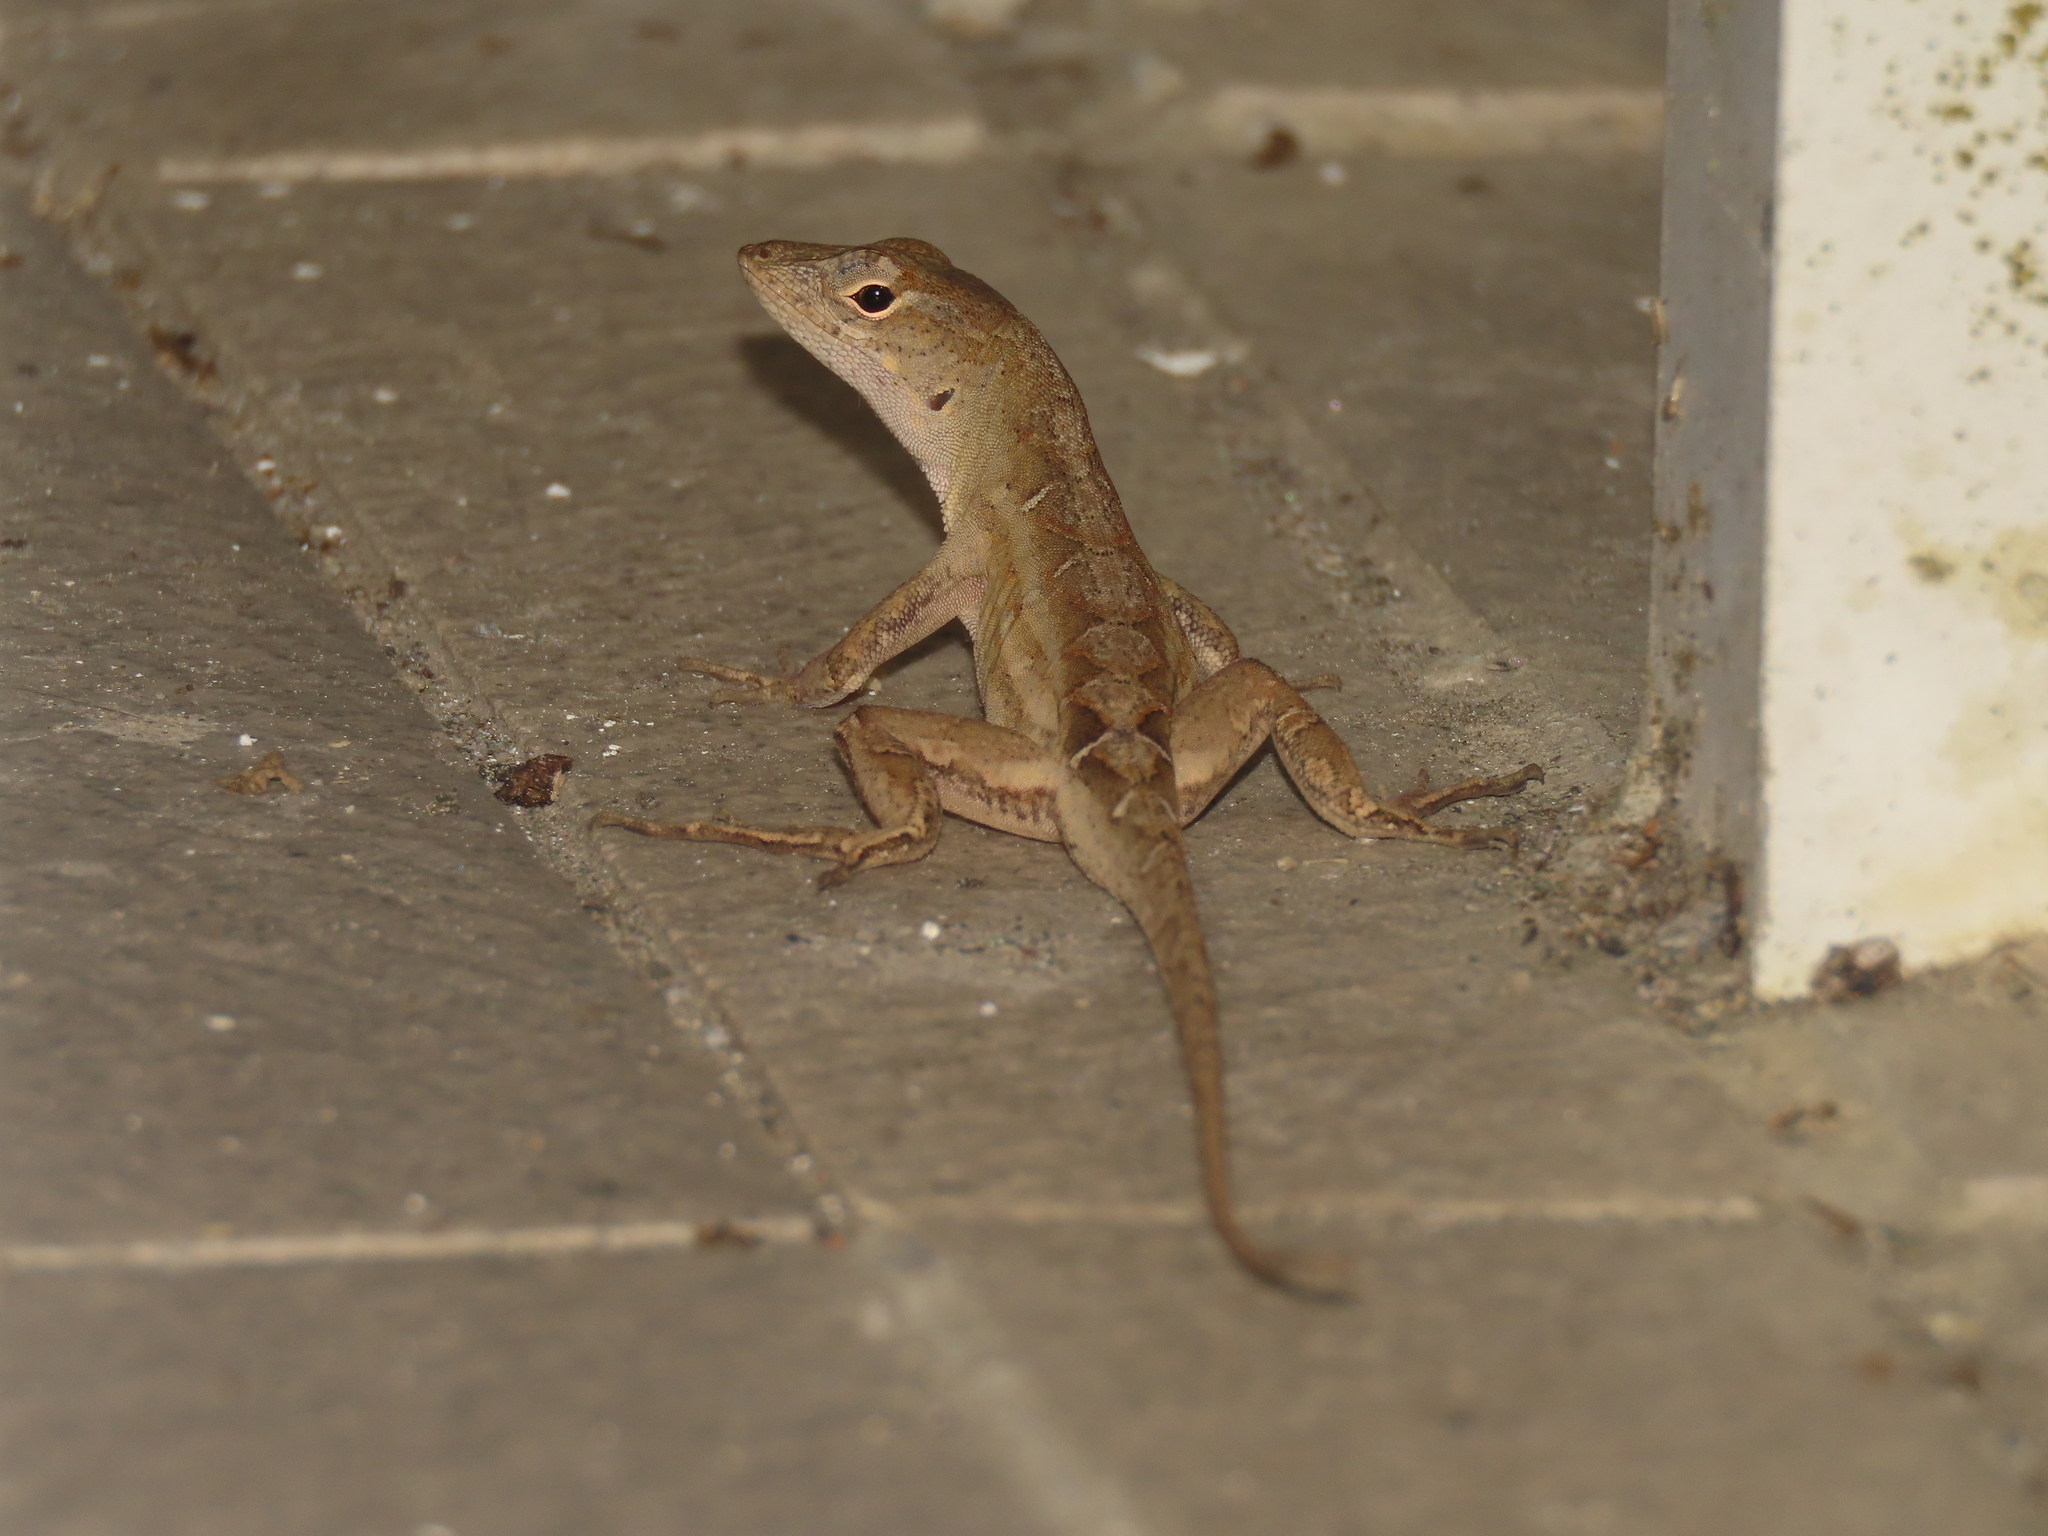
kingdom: Animalia
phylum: Chordata
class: Squamata
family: Dactyloidae
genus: Anolis
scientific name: Anolis sagrei
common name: Brown anole
